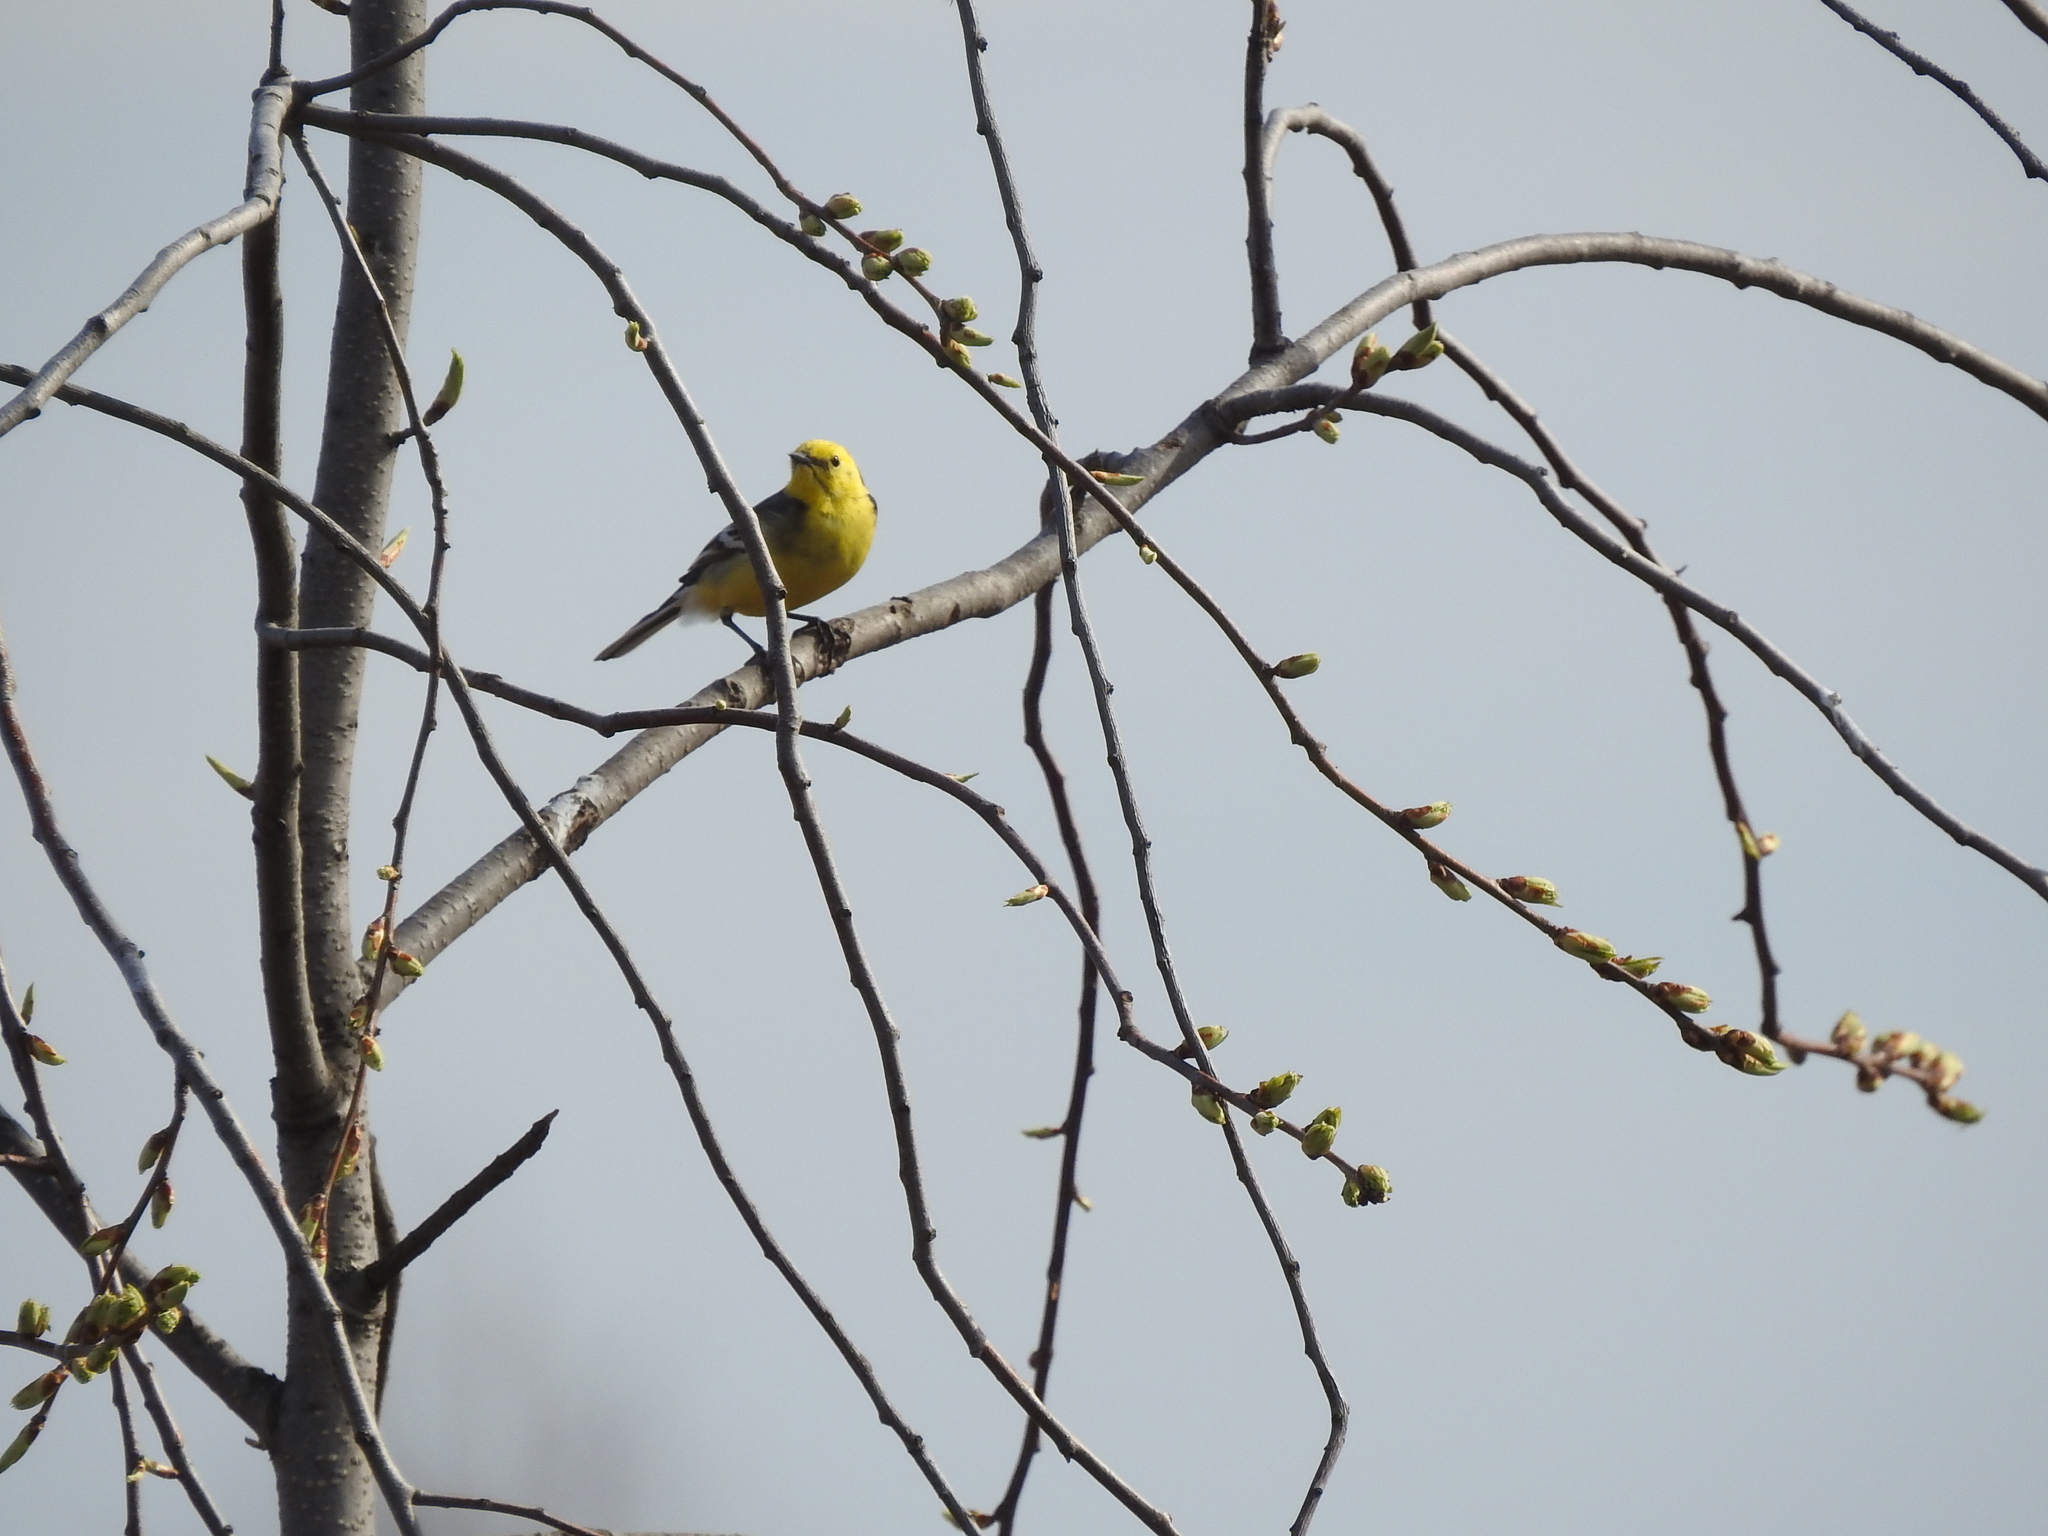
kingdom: Animalia
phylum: Chordata
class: Aves
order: Passeriformes
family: Motacillidae
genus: Motacilla
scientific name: Motacilla citreola
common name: Citrine wagtail
